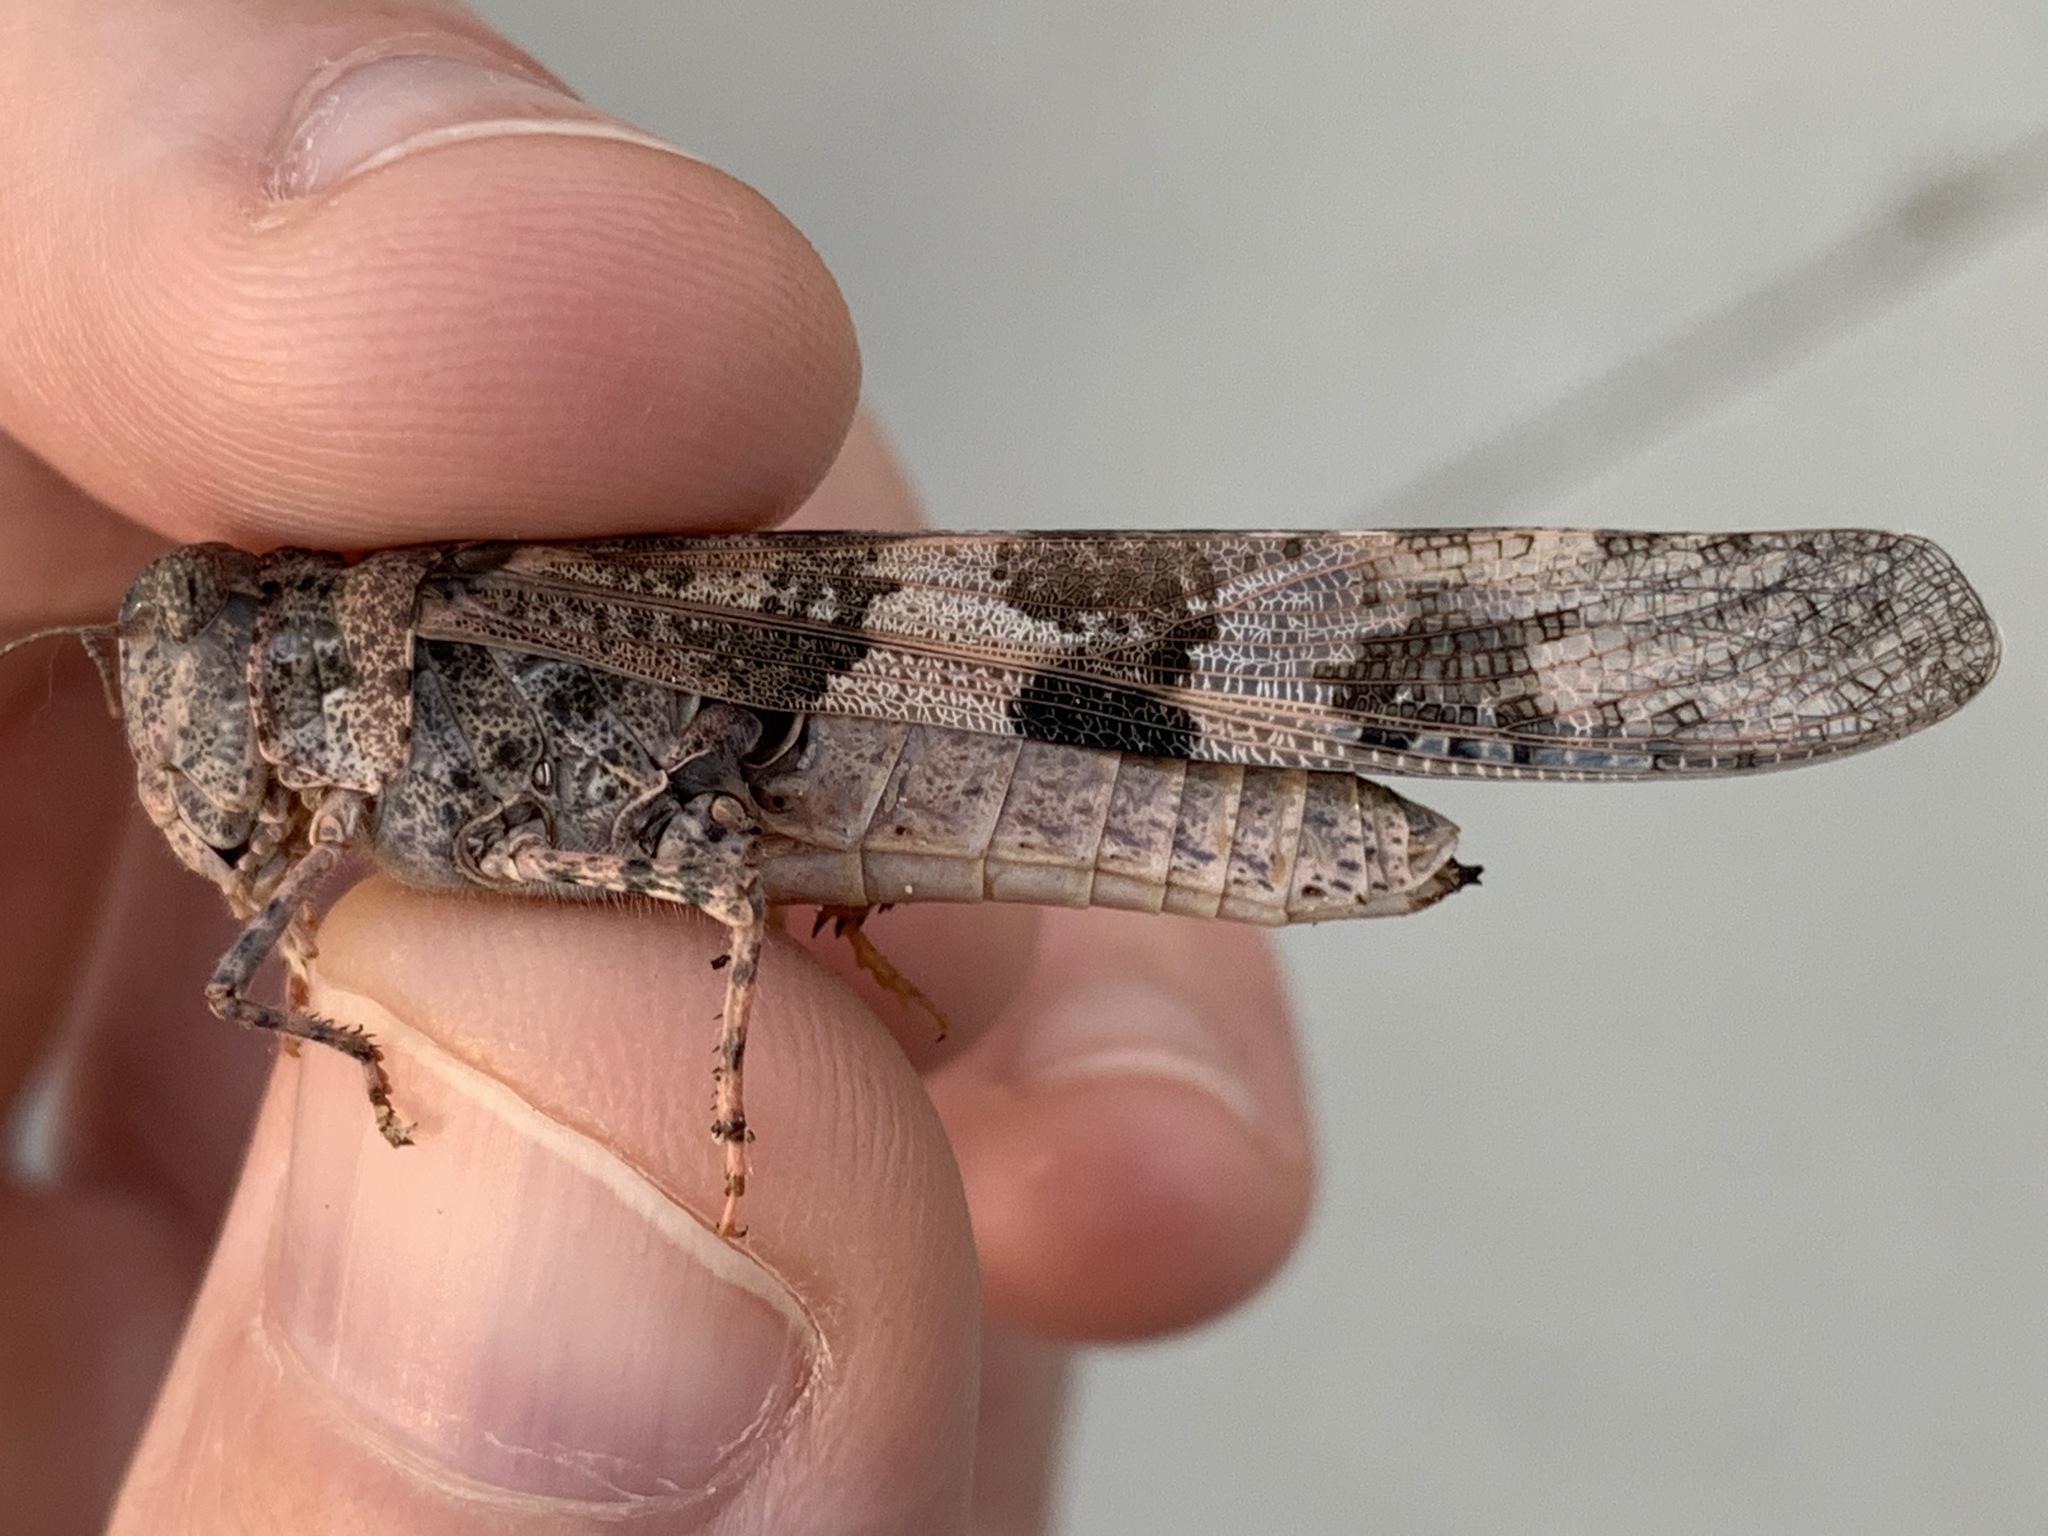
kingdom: Animalia
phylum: Arthropoda
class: Insecta
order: Orthoptera
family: Acrididae
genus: Trimerotropis
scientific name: Trimerotropis pallidipennis
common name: Pallid-winged grasshopper
